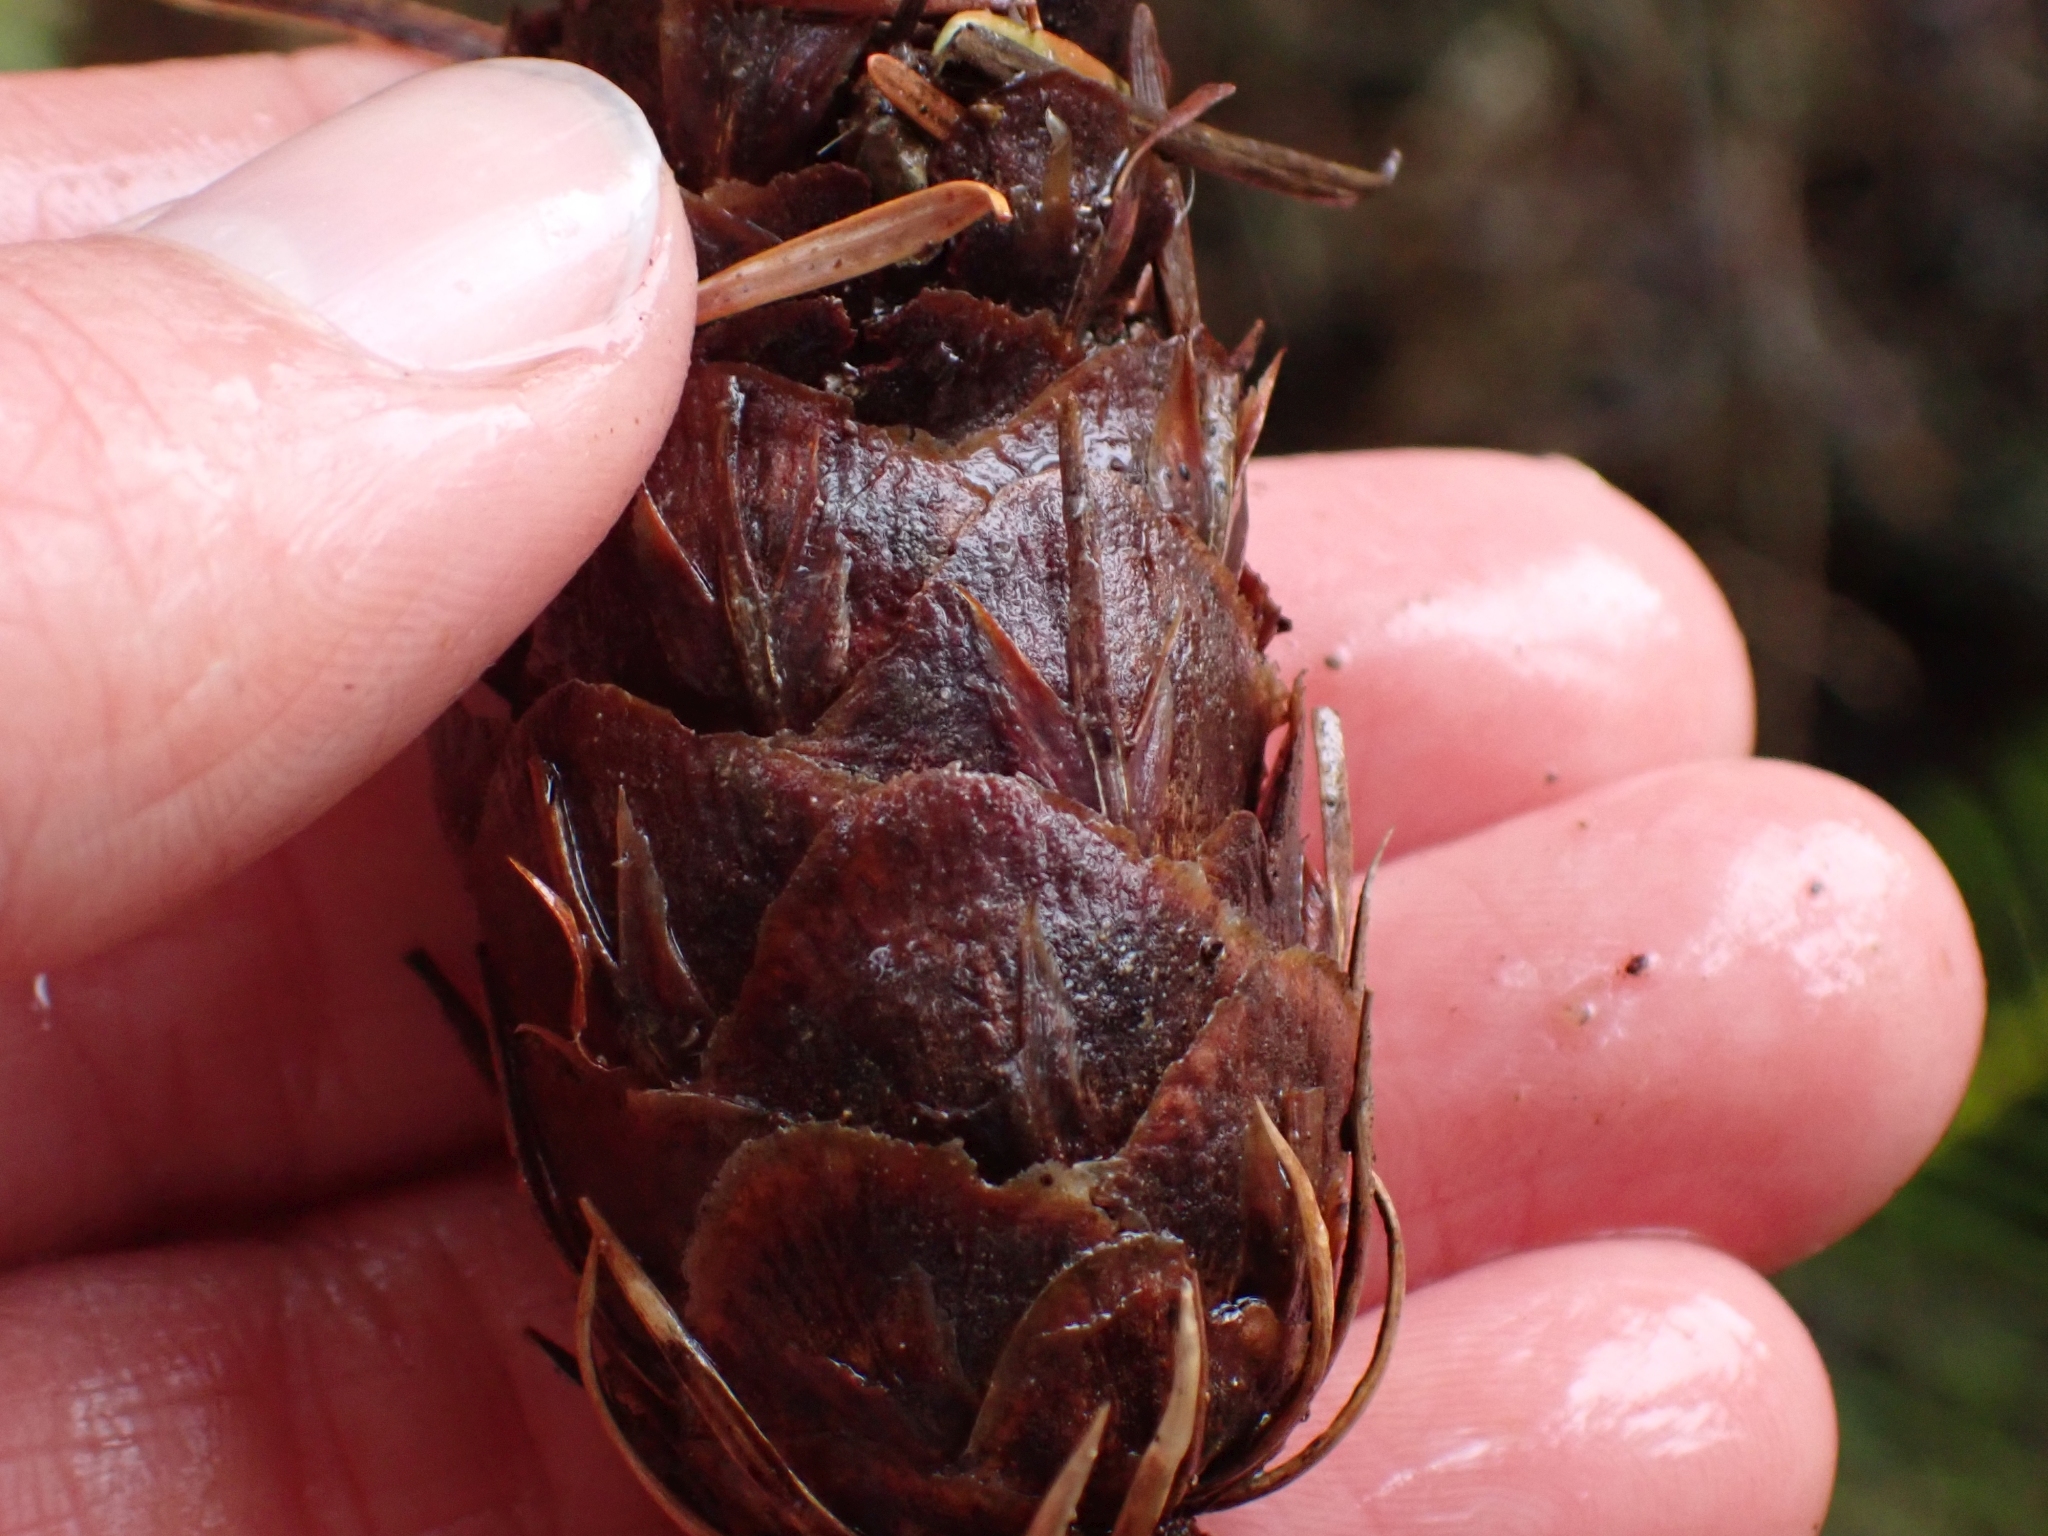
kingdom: Plantae
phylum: Tracheophyta
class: Pinopsida
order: Pinales
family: Pinaceae
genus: Pseudotsuga
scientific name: Pseudotsuga menziesii
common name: Douglas fir
